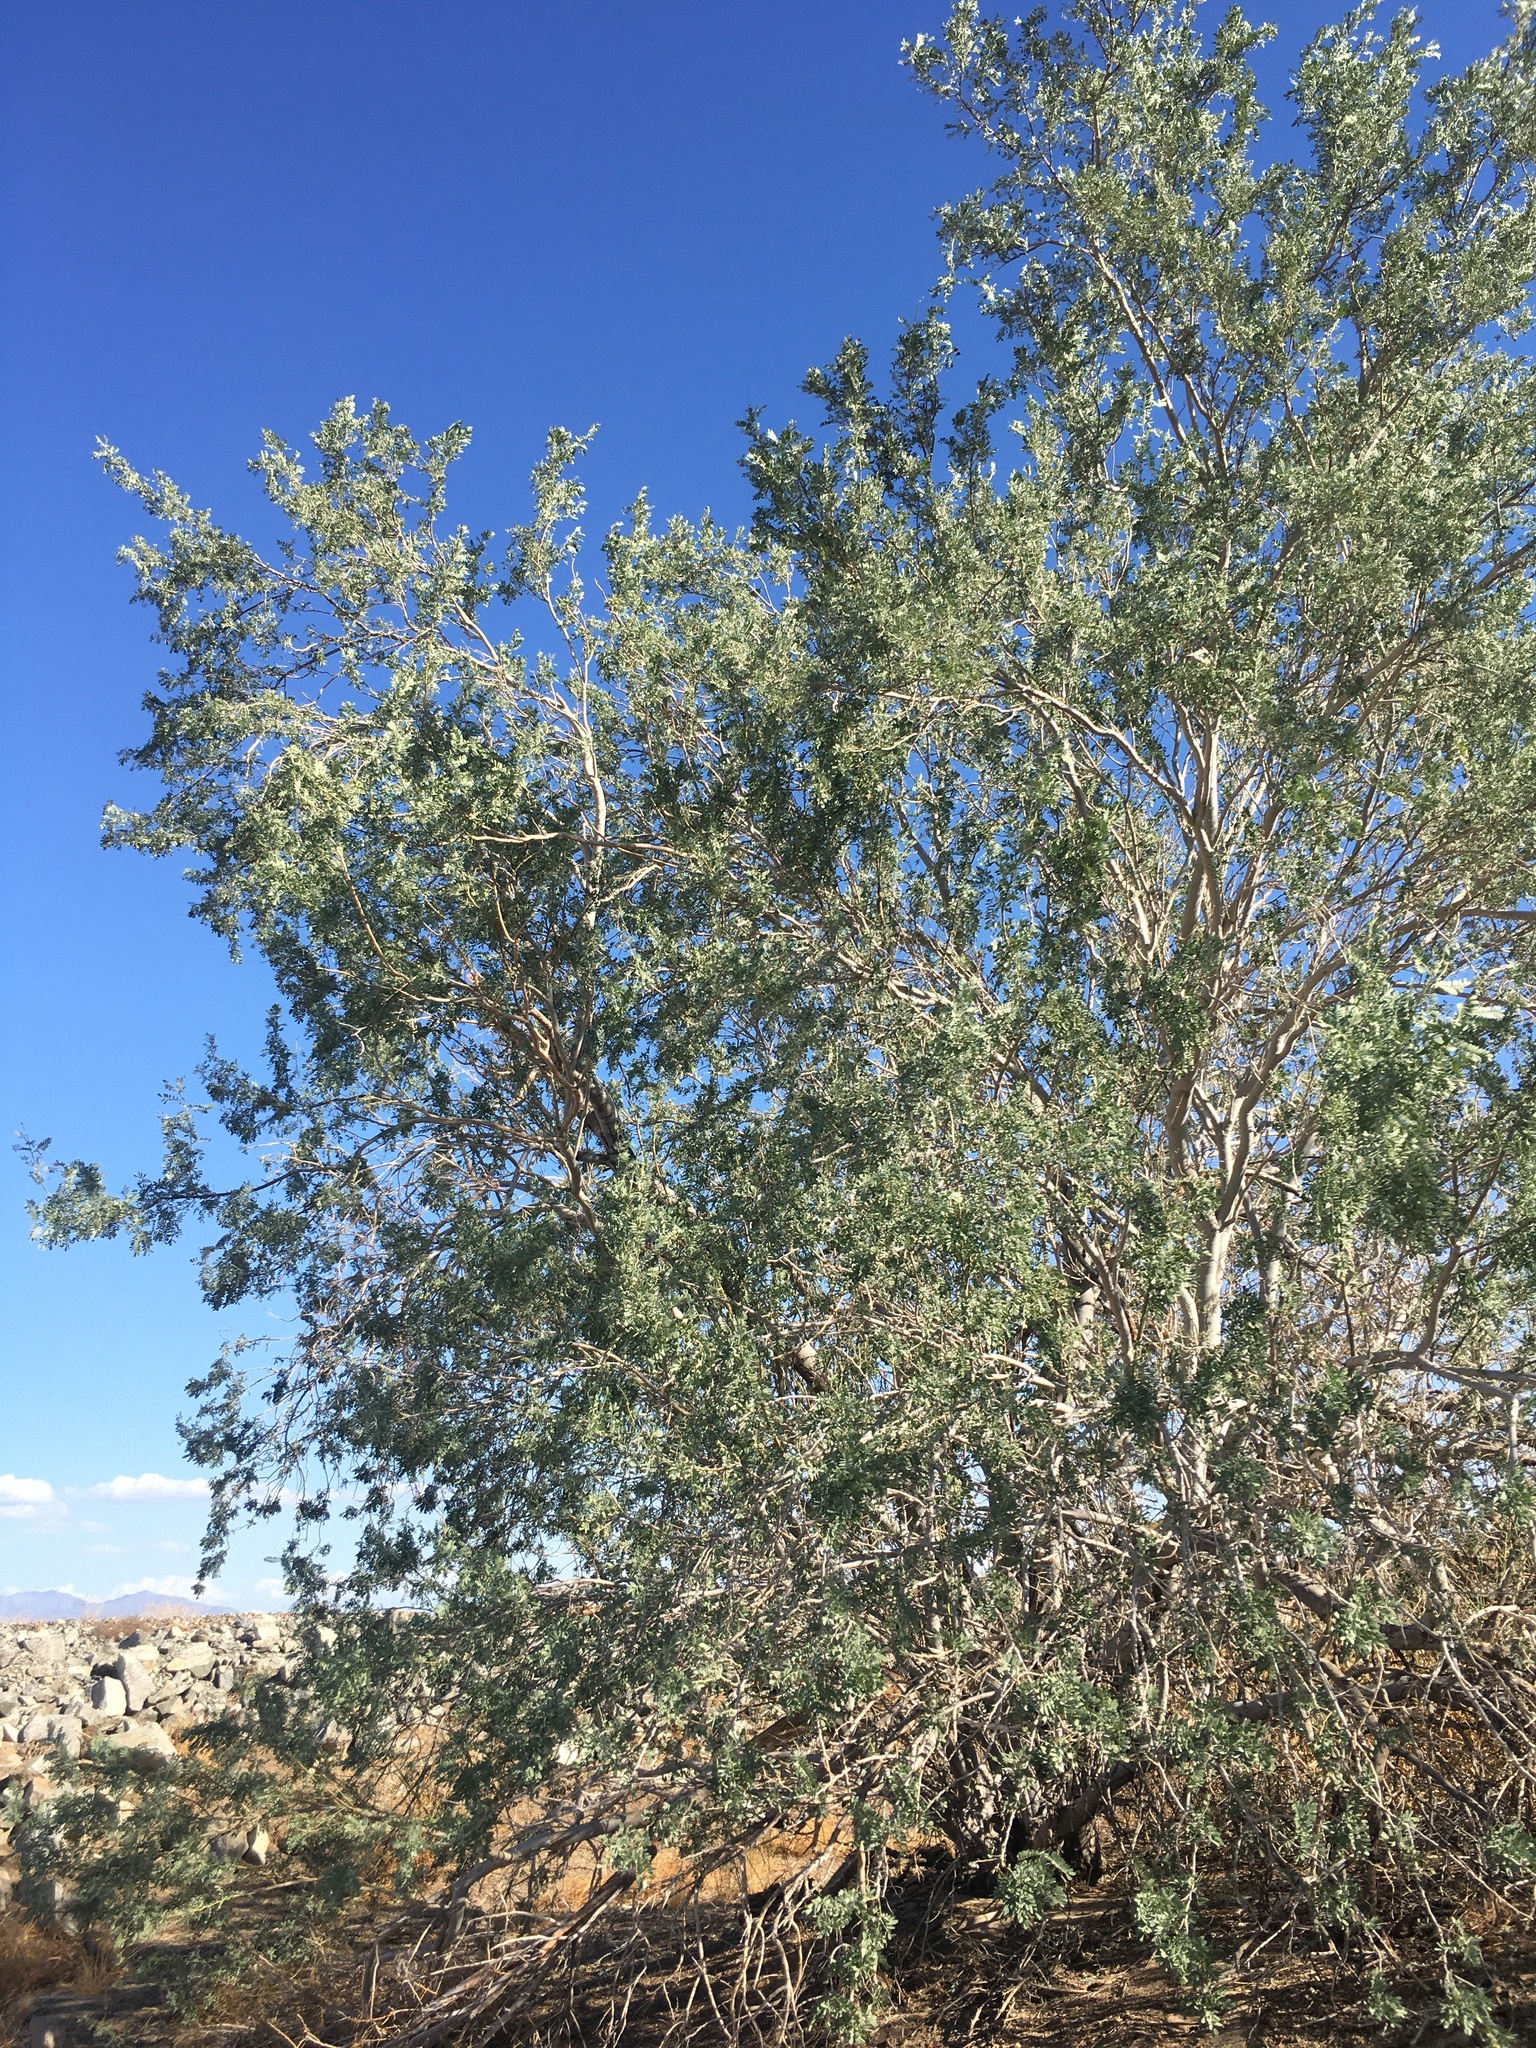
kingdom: Plantae
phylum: Tracheophyta
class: Magnoliopsida
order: Fabales
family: Fabaceae
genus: Olneya
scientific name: Olneya tesota
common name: Desert ironwood
